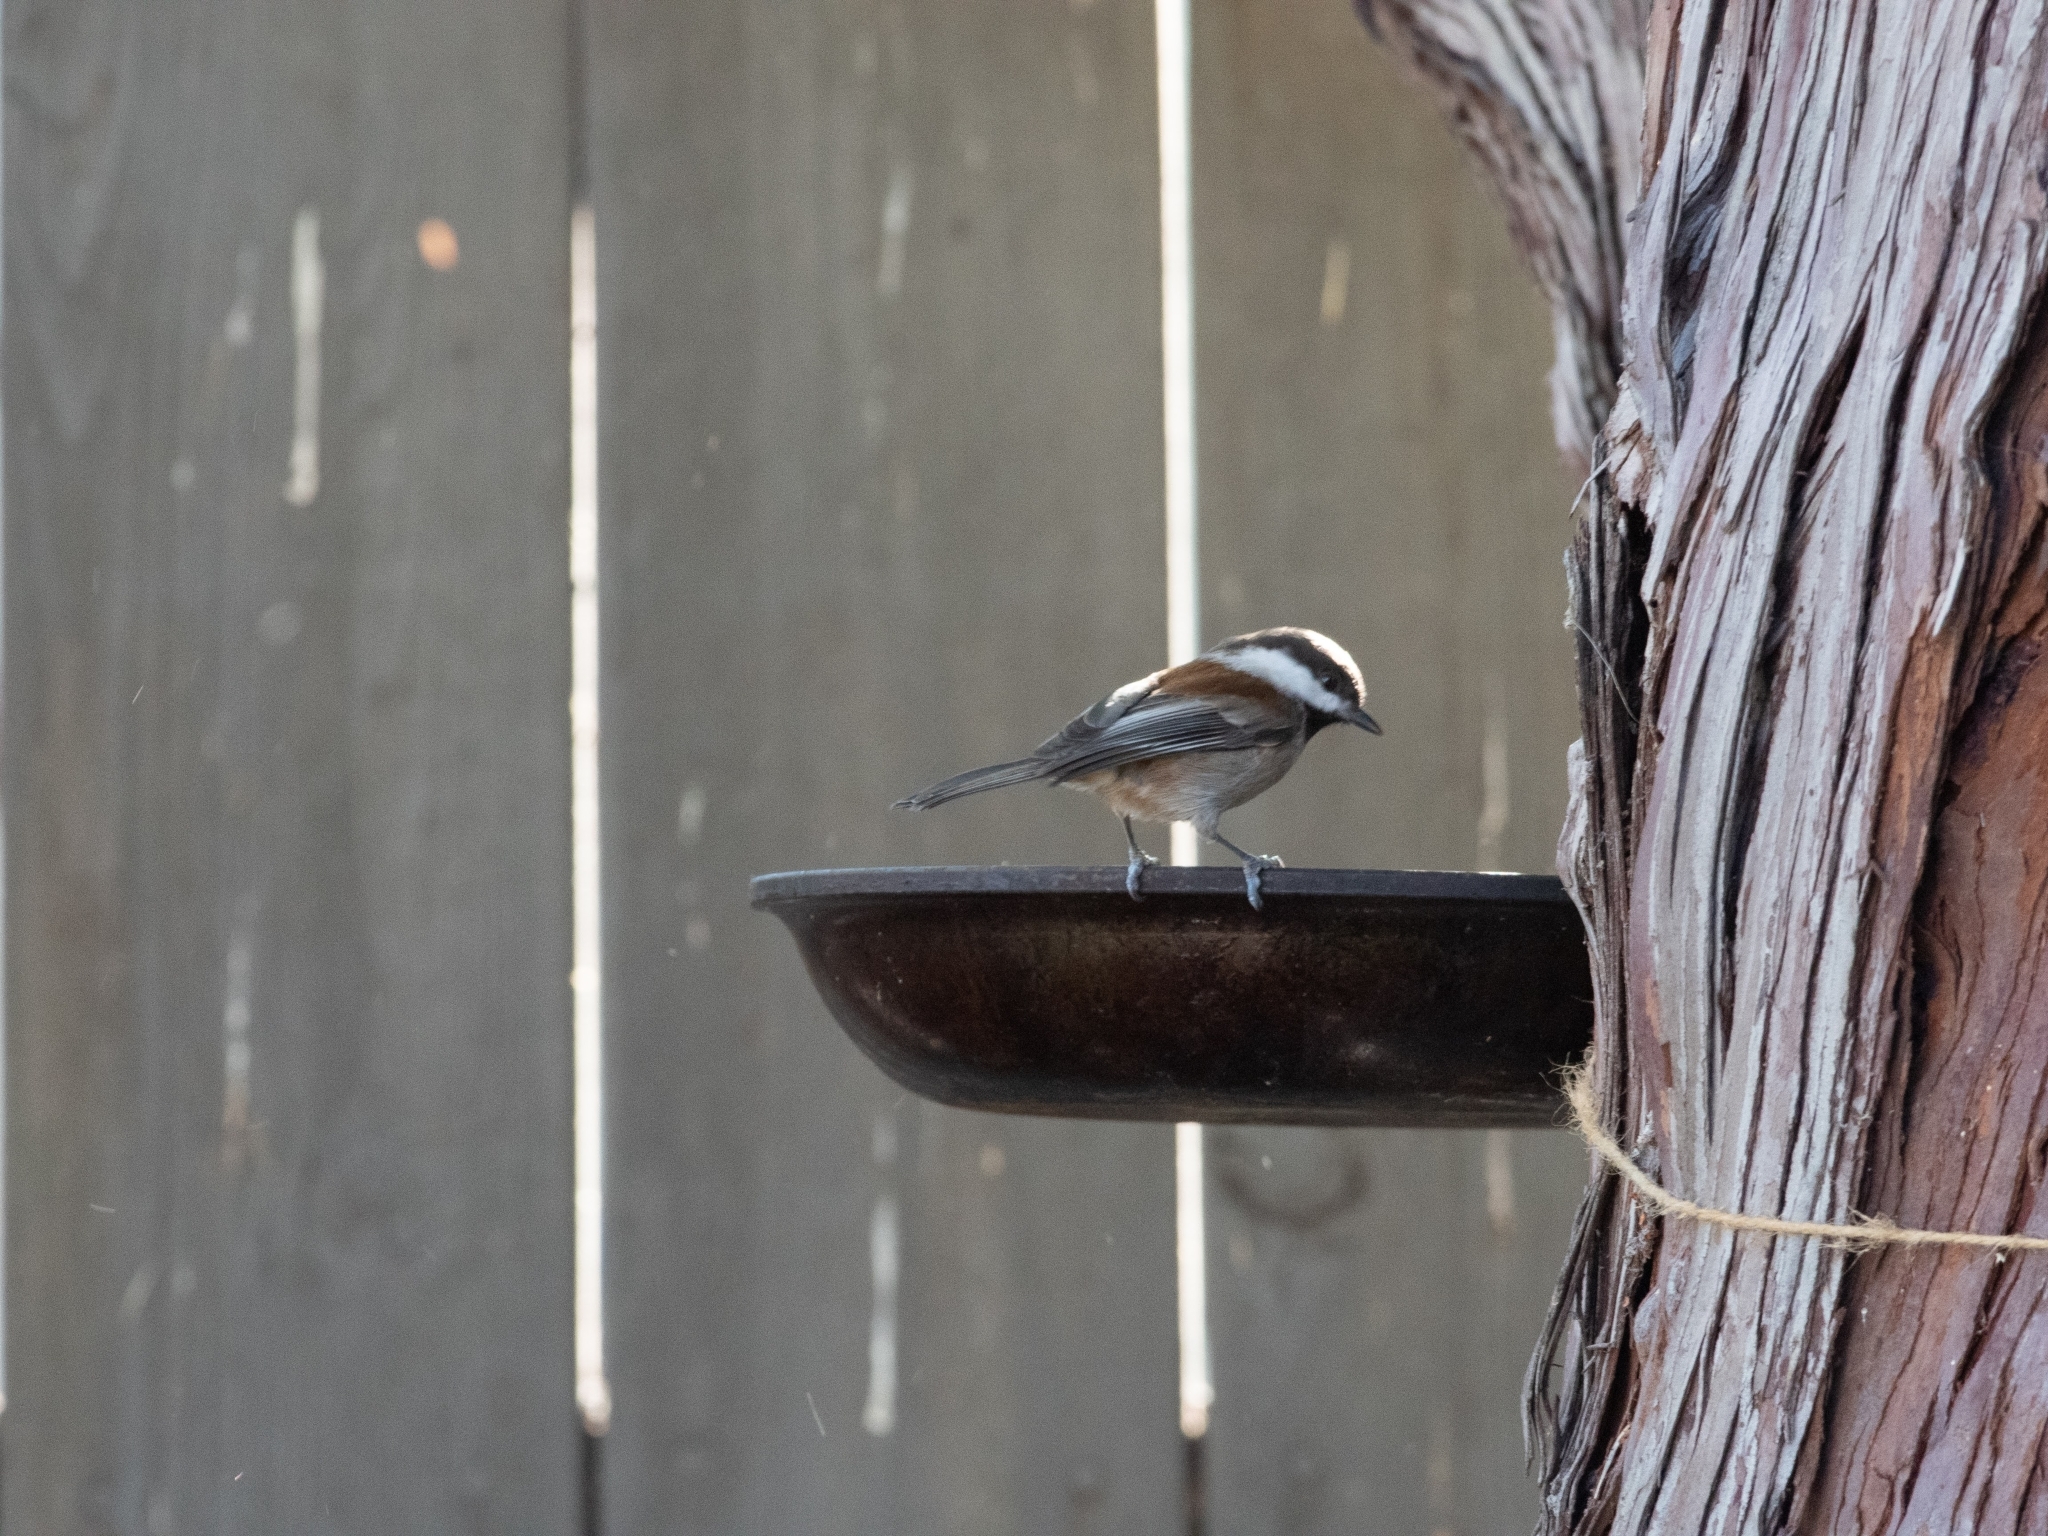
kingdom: Animalia
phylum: Chordata
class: Aves
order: Passeriformes
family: Paridae
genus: Poecile
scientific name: Poecile rufescens
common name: Chestnut-backed chickadee
